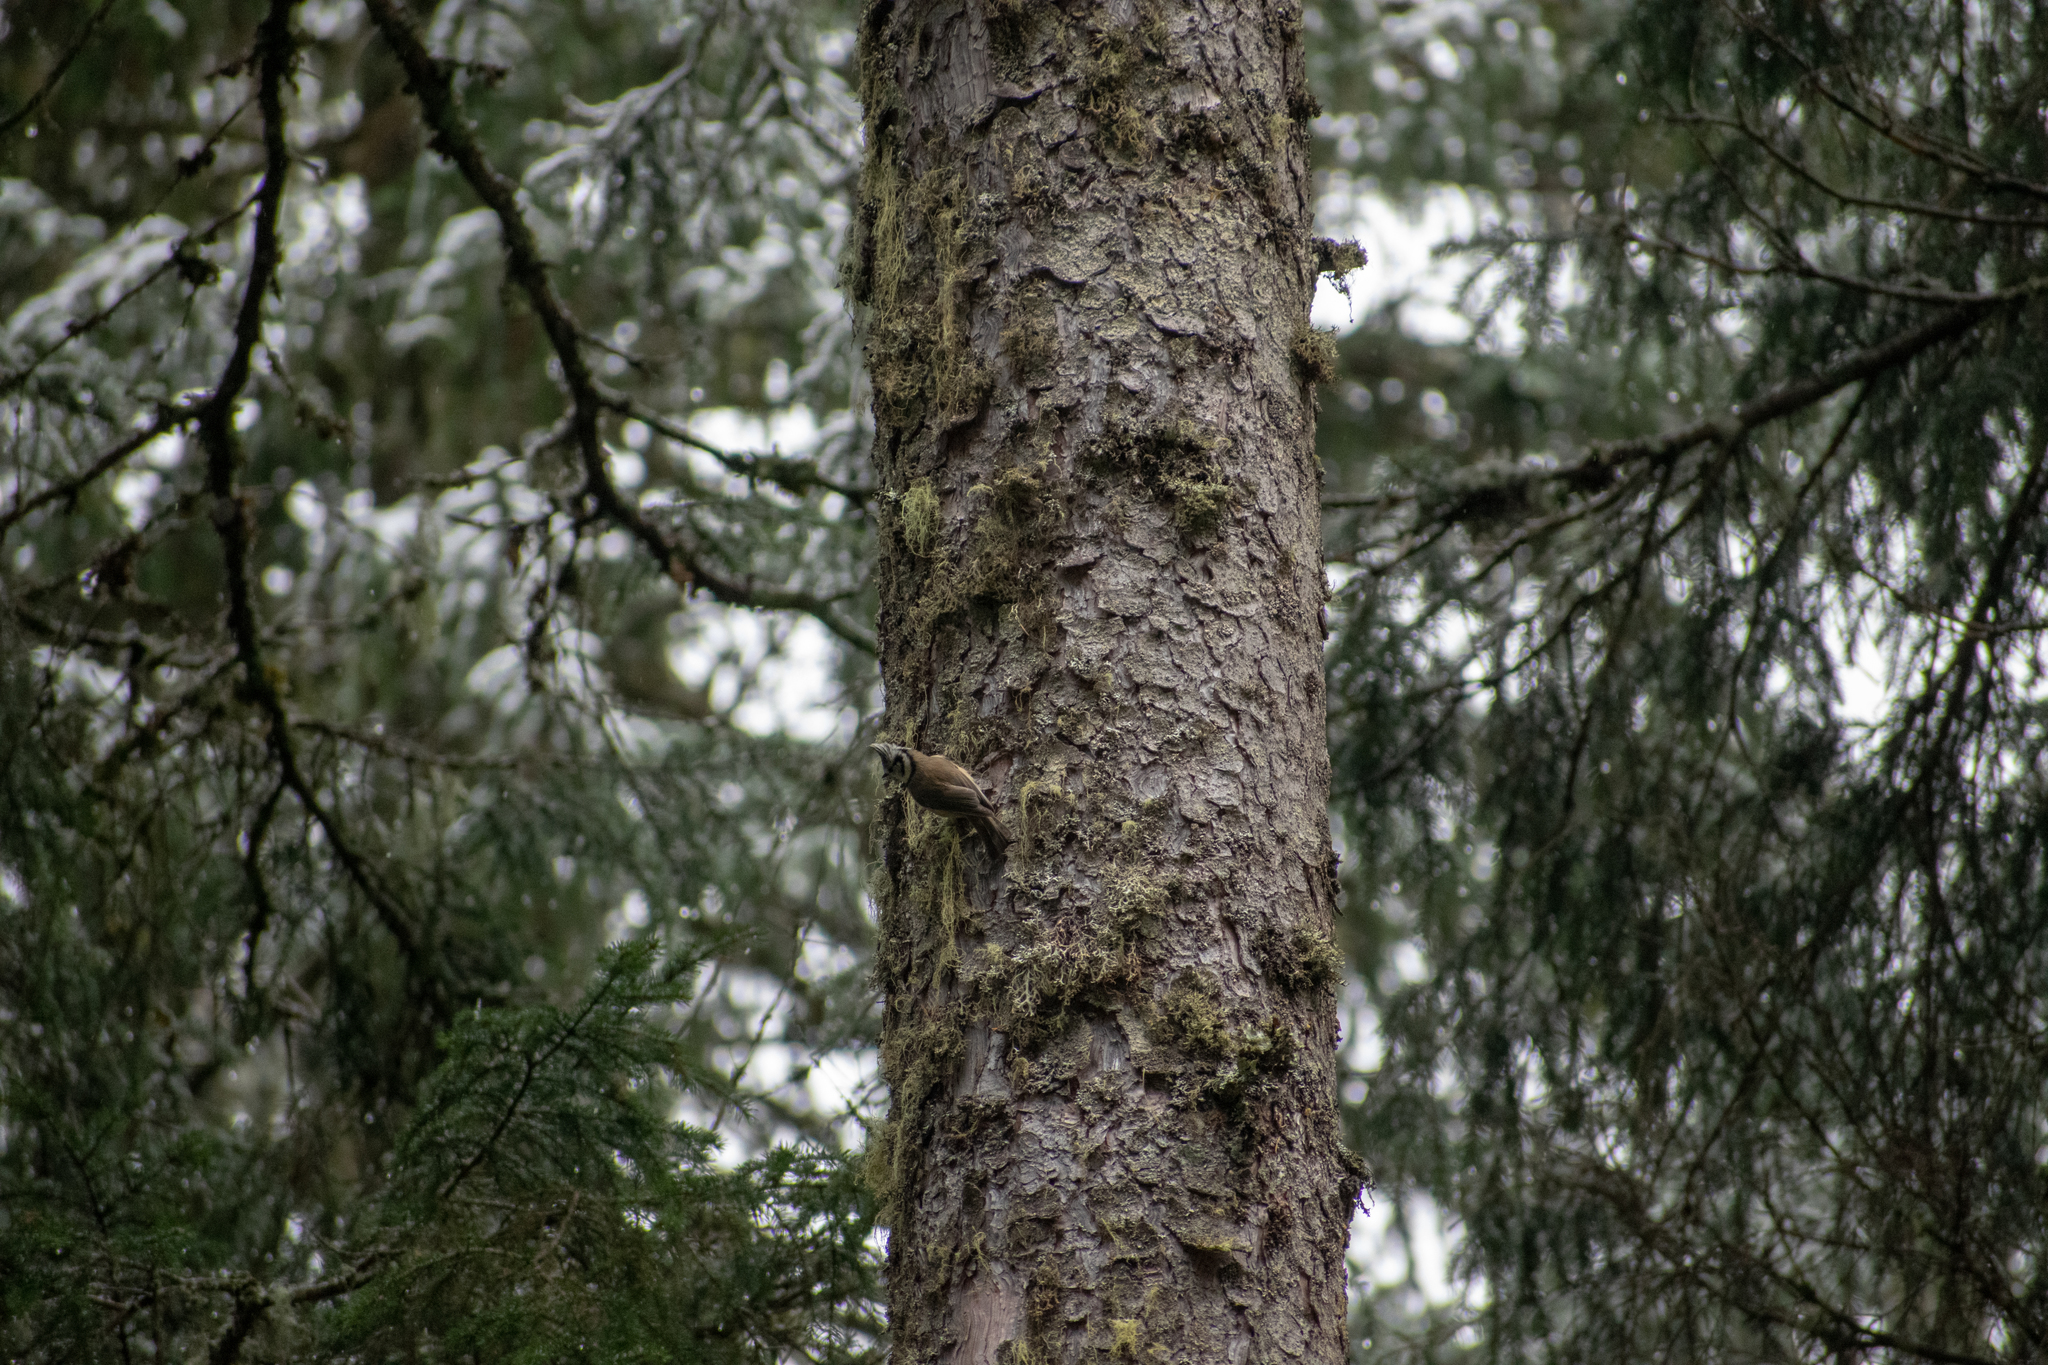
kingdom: Animalia
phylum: Chordata
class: Aves
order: Passeriformes
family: Paridae
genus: Lophophanes
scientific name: Lophophanes cristatus
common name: European crested tit
